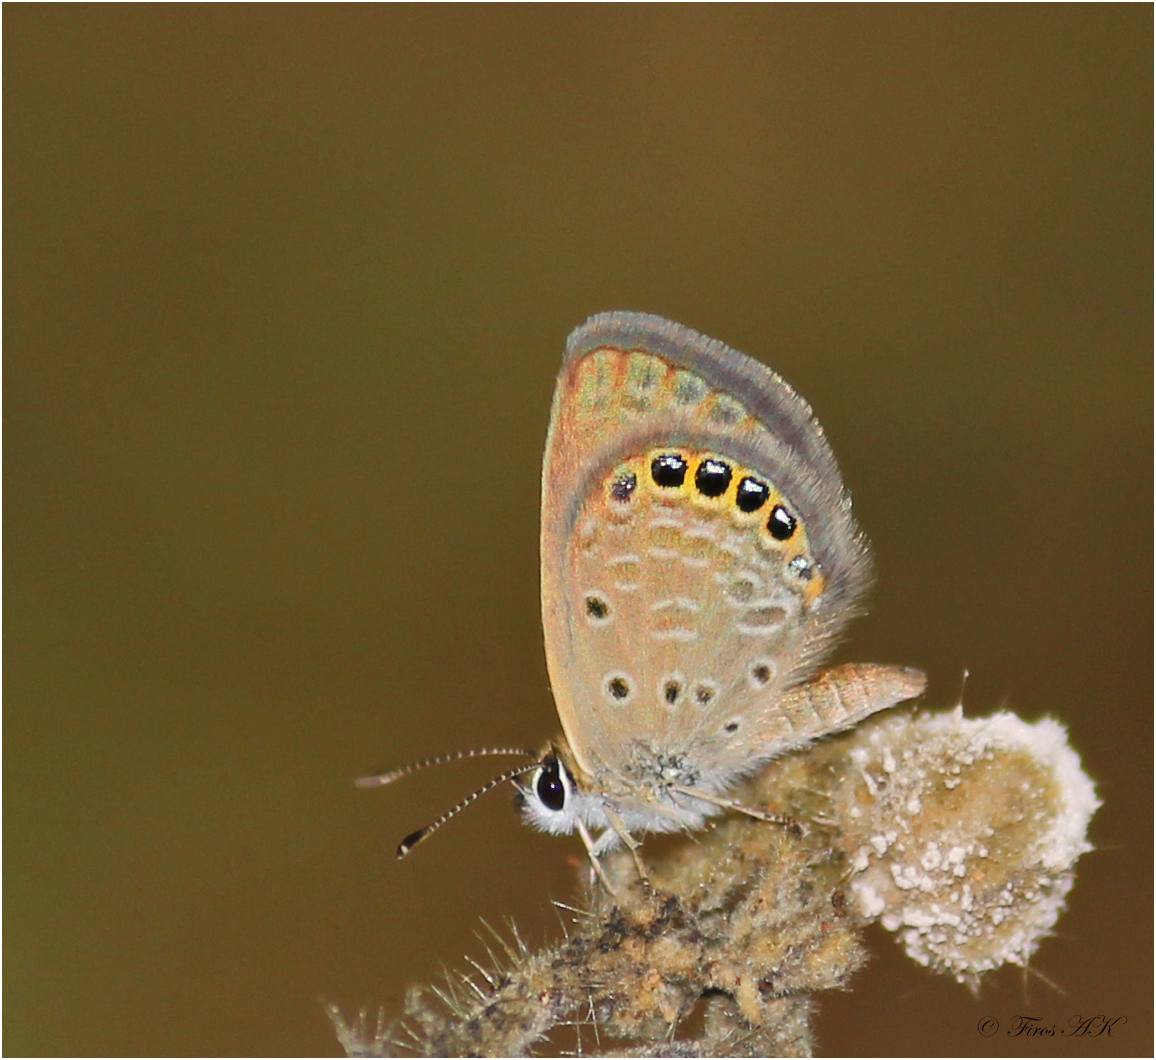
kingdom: Animalia
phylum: Arthropoda
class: Insecta
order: Lepidoptera
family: Lycaenidae
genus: Freyeria
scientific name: Freyeria putli
